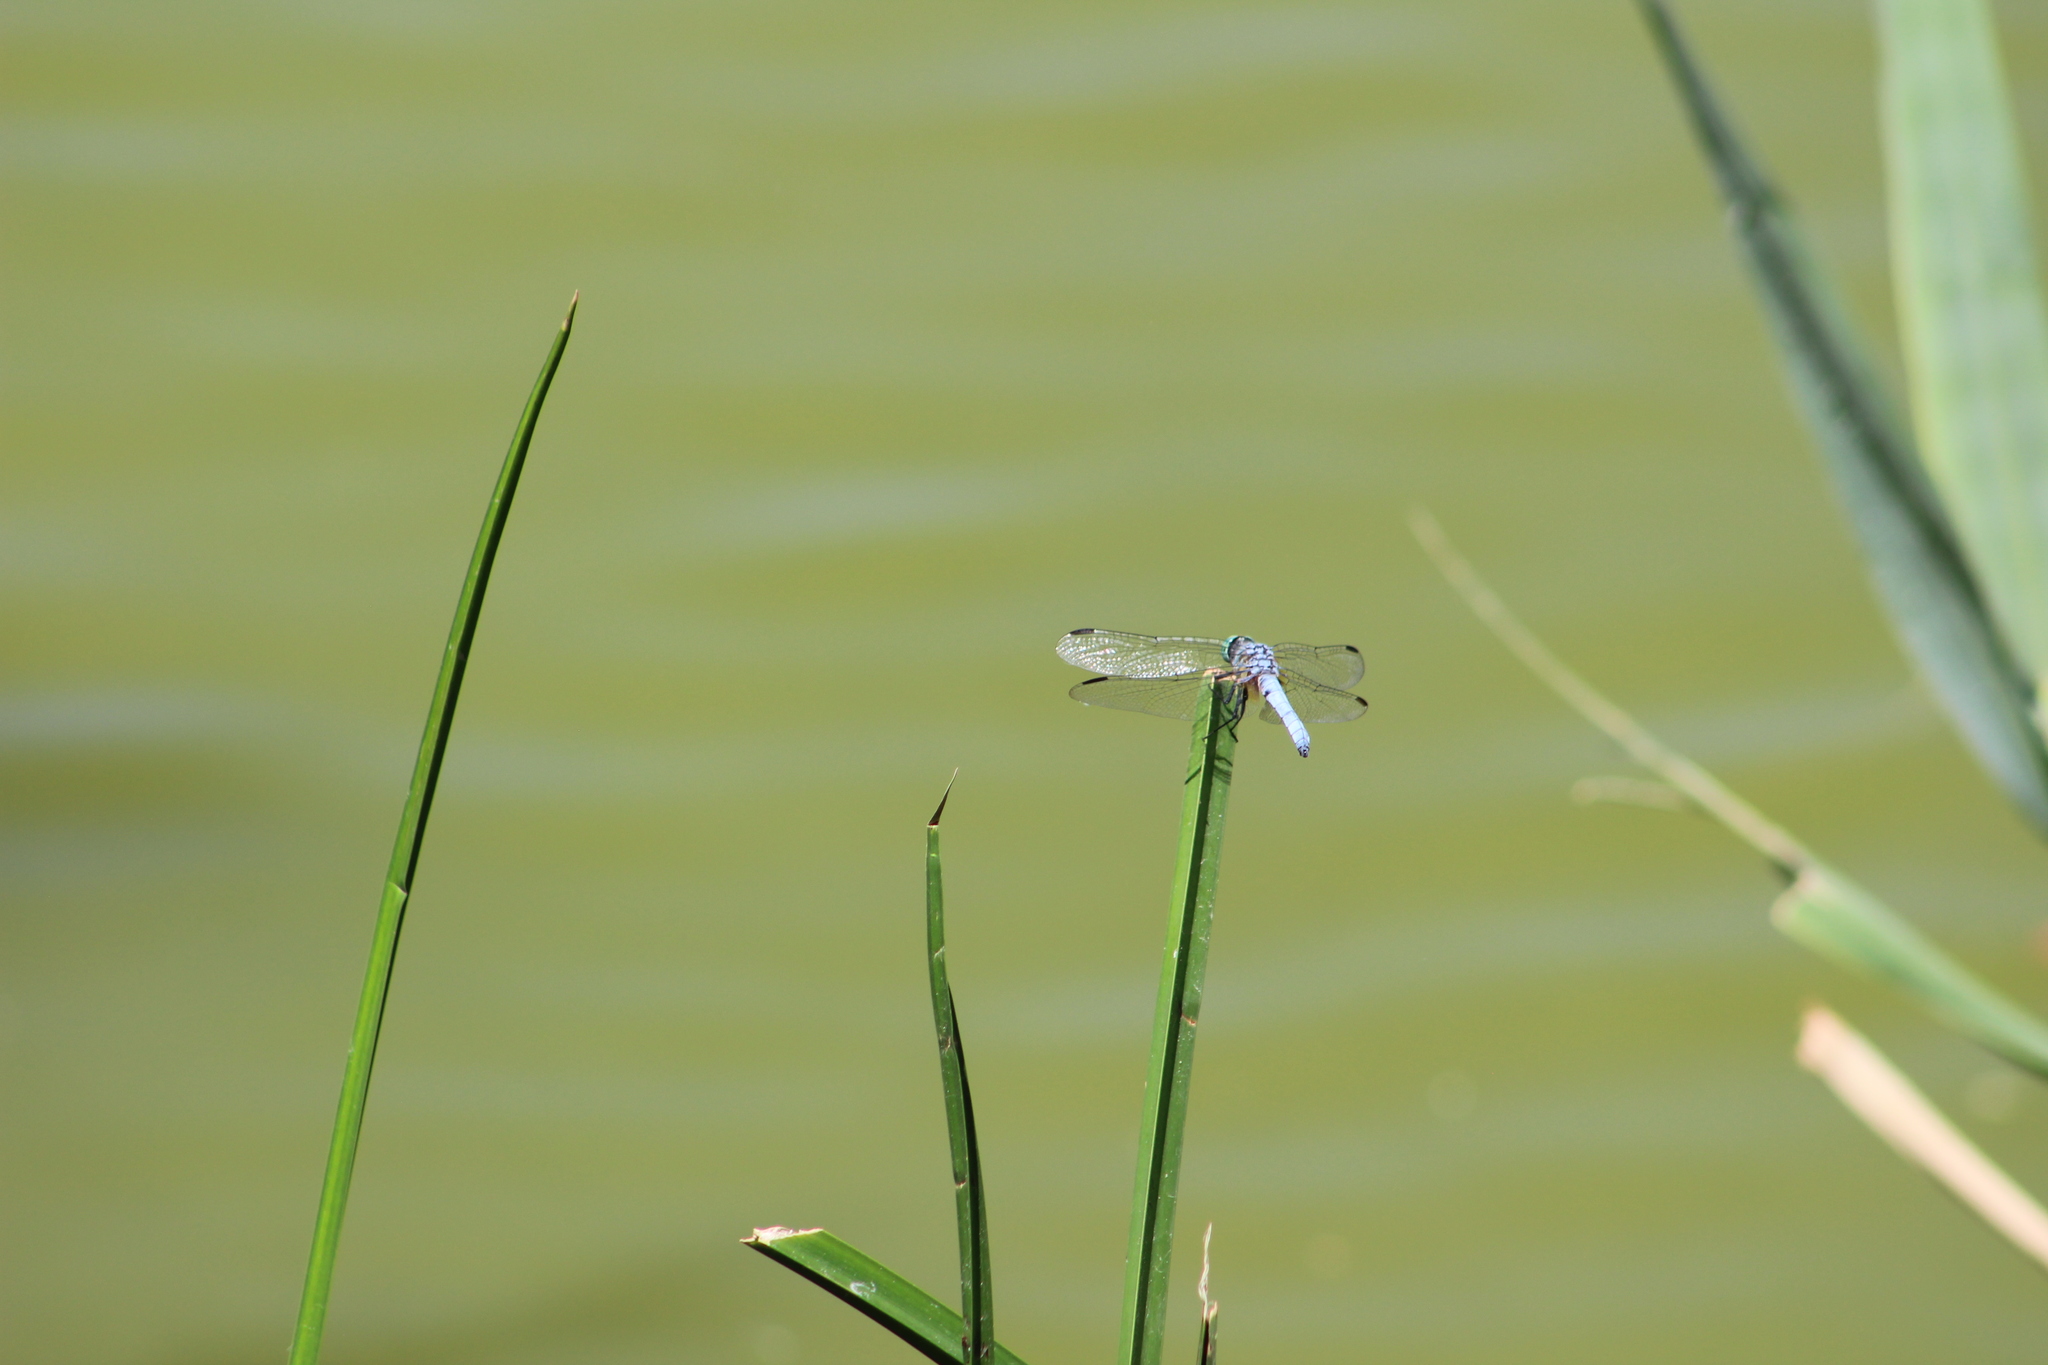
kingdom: Animalia
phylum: Arthropoda
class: Insecta
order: Odonata
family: Libellulidae
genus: Pachydiplax
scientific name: Pachydiplax longipennis
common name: Blue dasher
